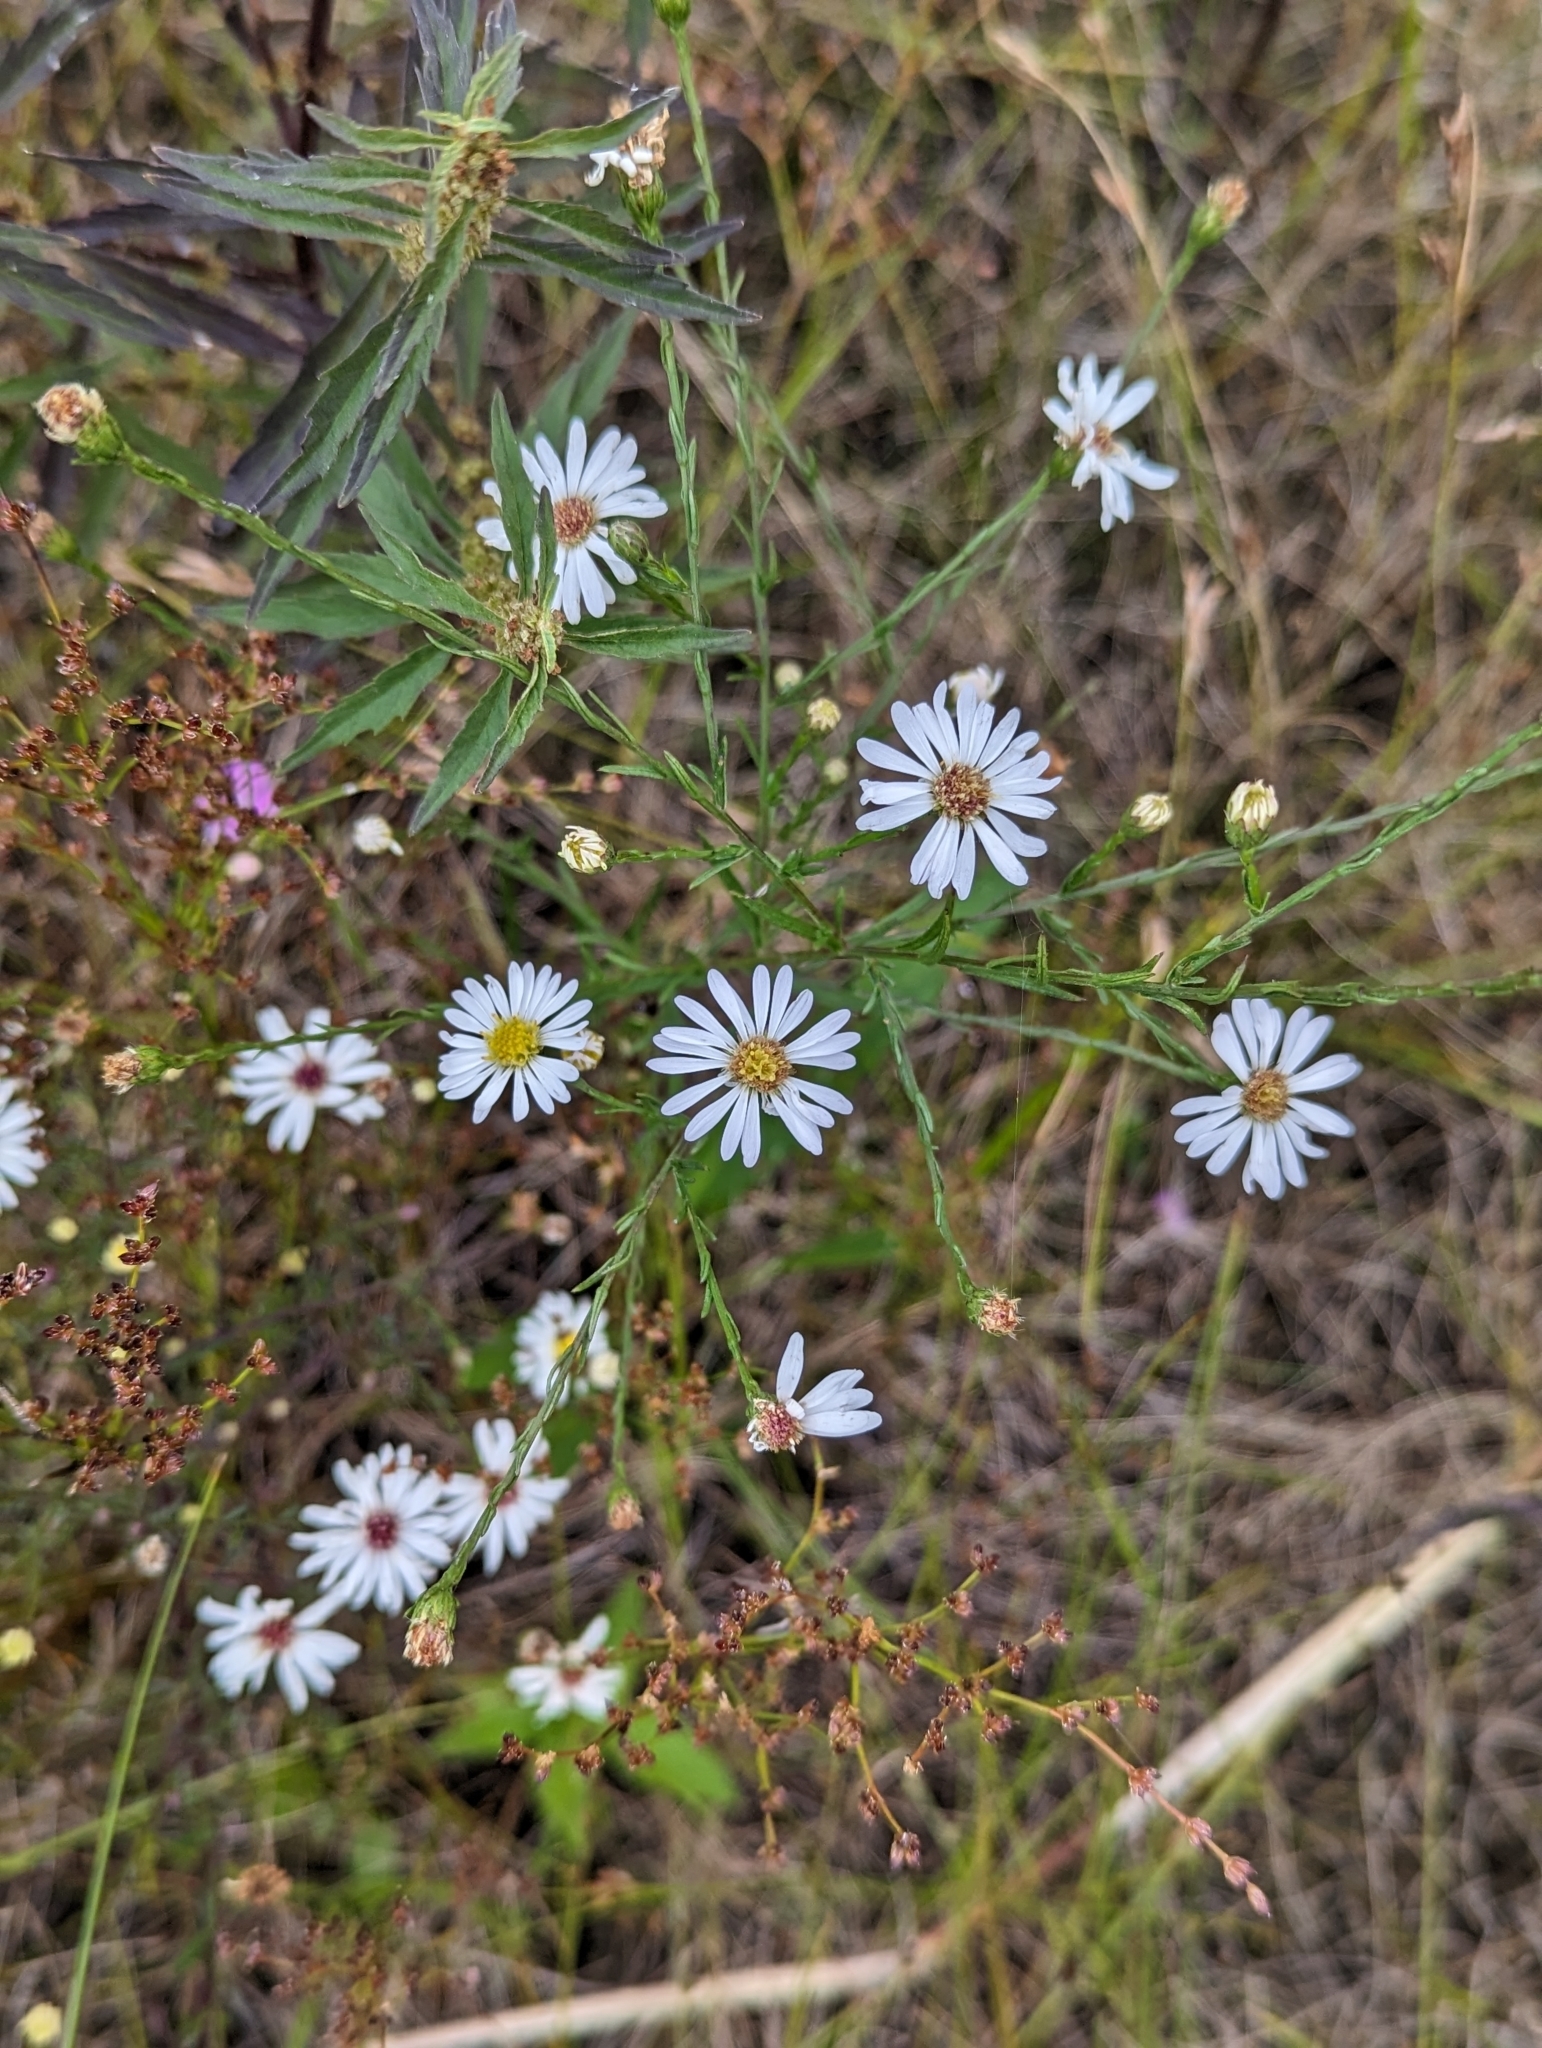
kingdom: Plantae
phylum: Tracheophyta
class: Magnoliopsida
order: Asterales
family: Asteraceae
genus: Symphyotrichum
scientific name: Symphyotrichum dumosum
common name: Bushy aster
